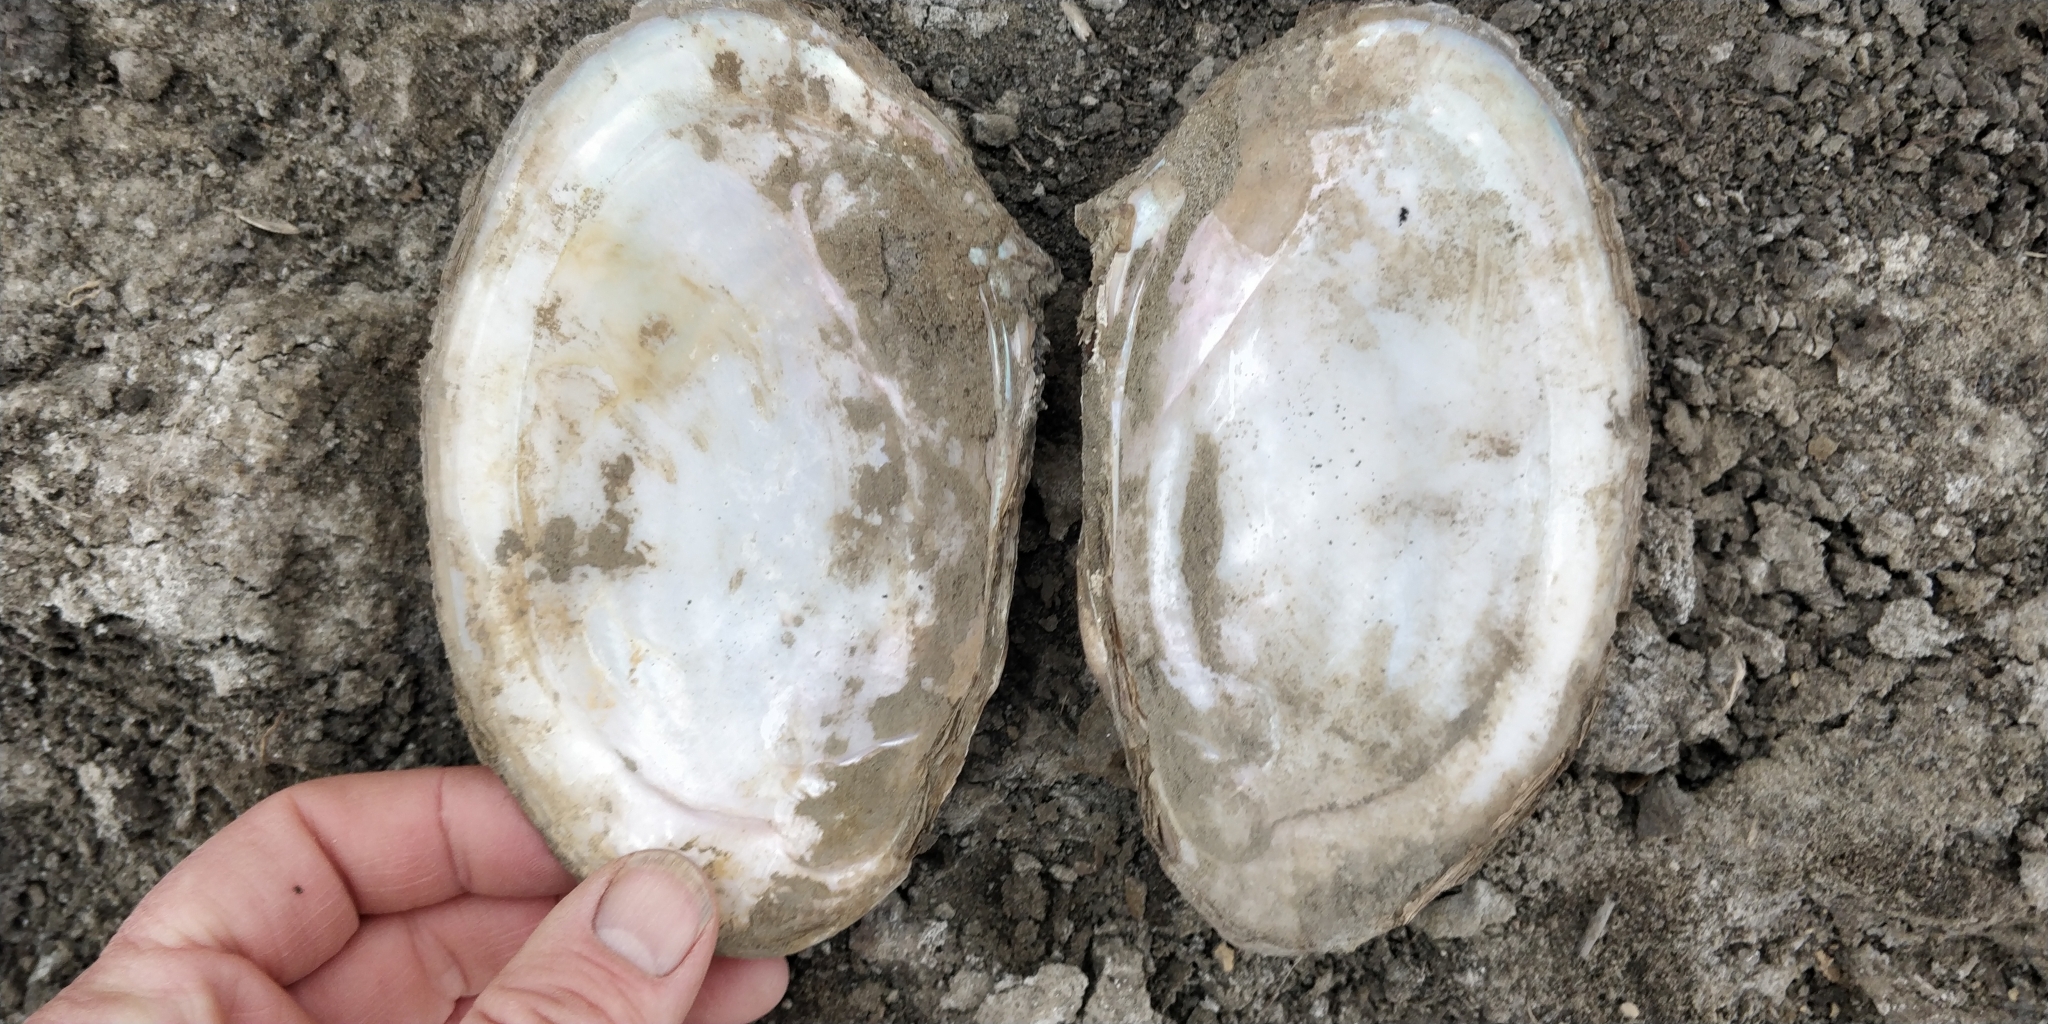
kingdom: Animalia
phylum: Mollusca
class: Bivalvia
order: Unionida
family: Unionidae
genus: Potamilus
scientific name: Potamilus fragilis
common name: Fragile papershell
